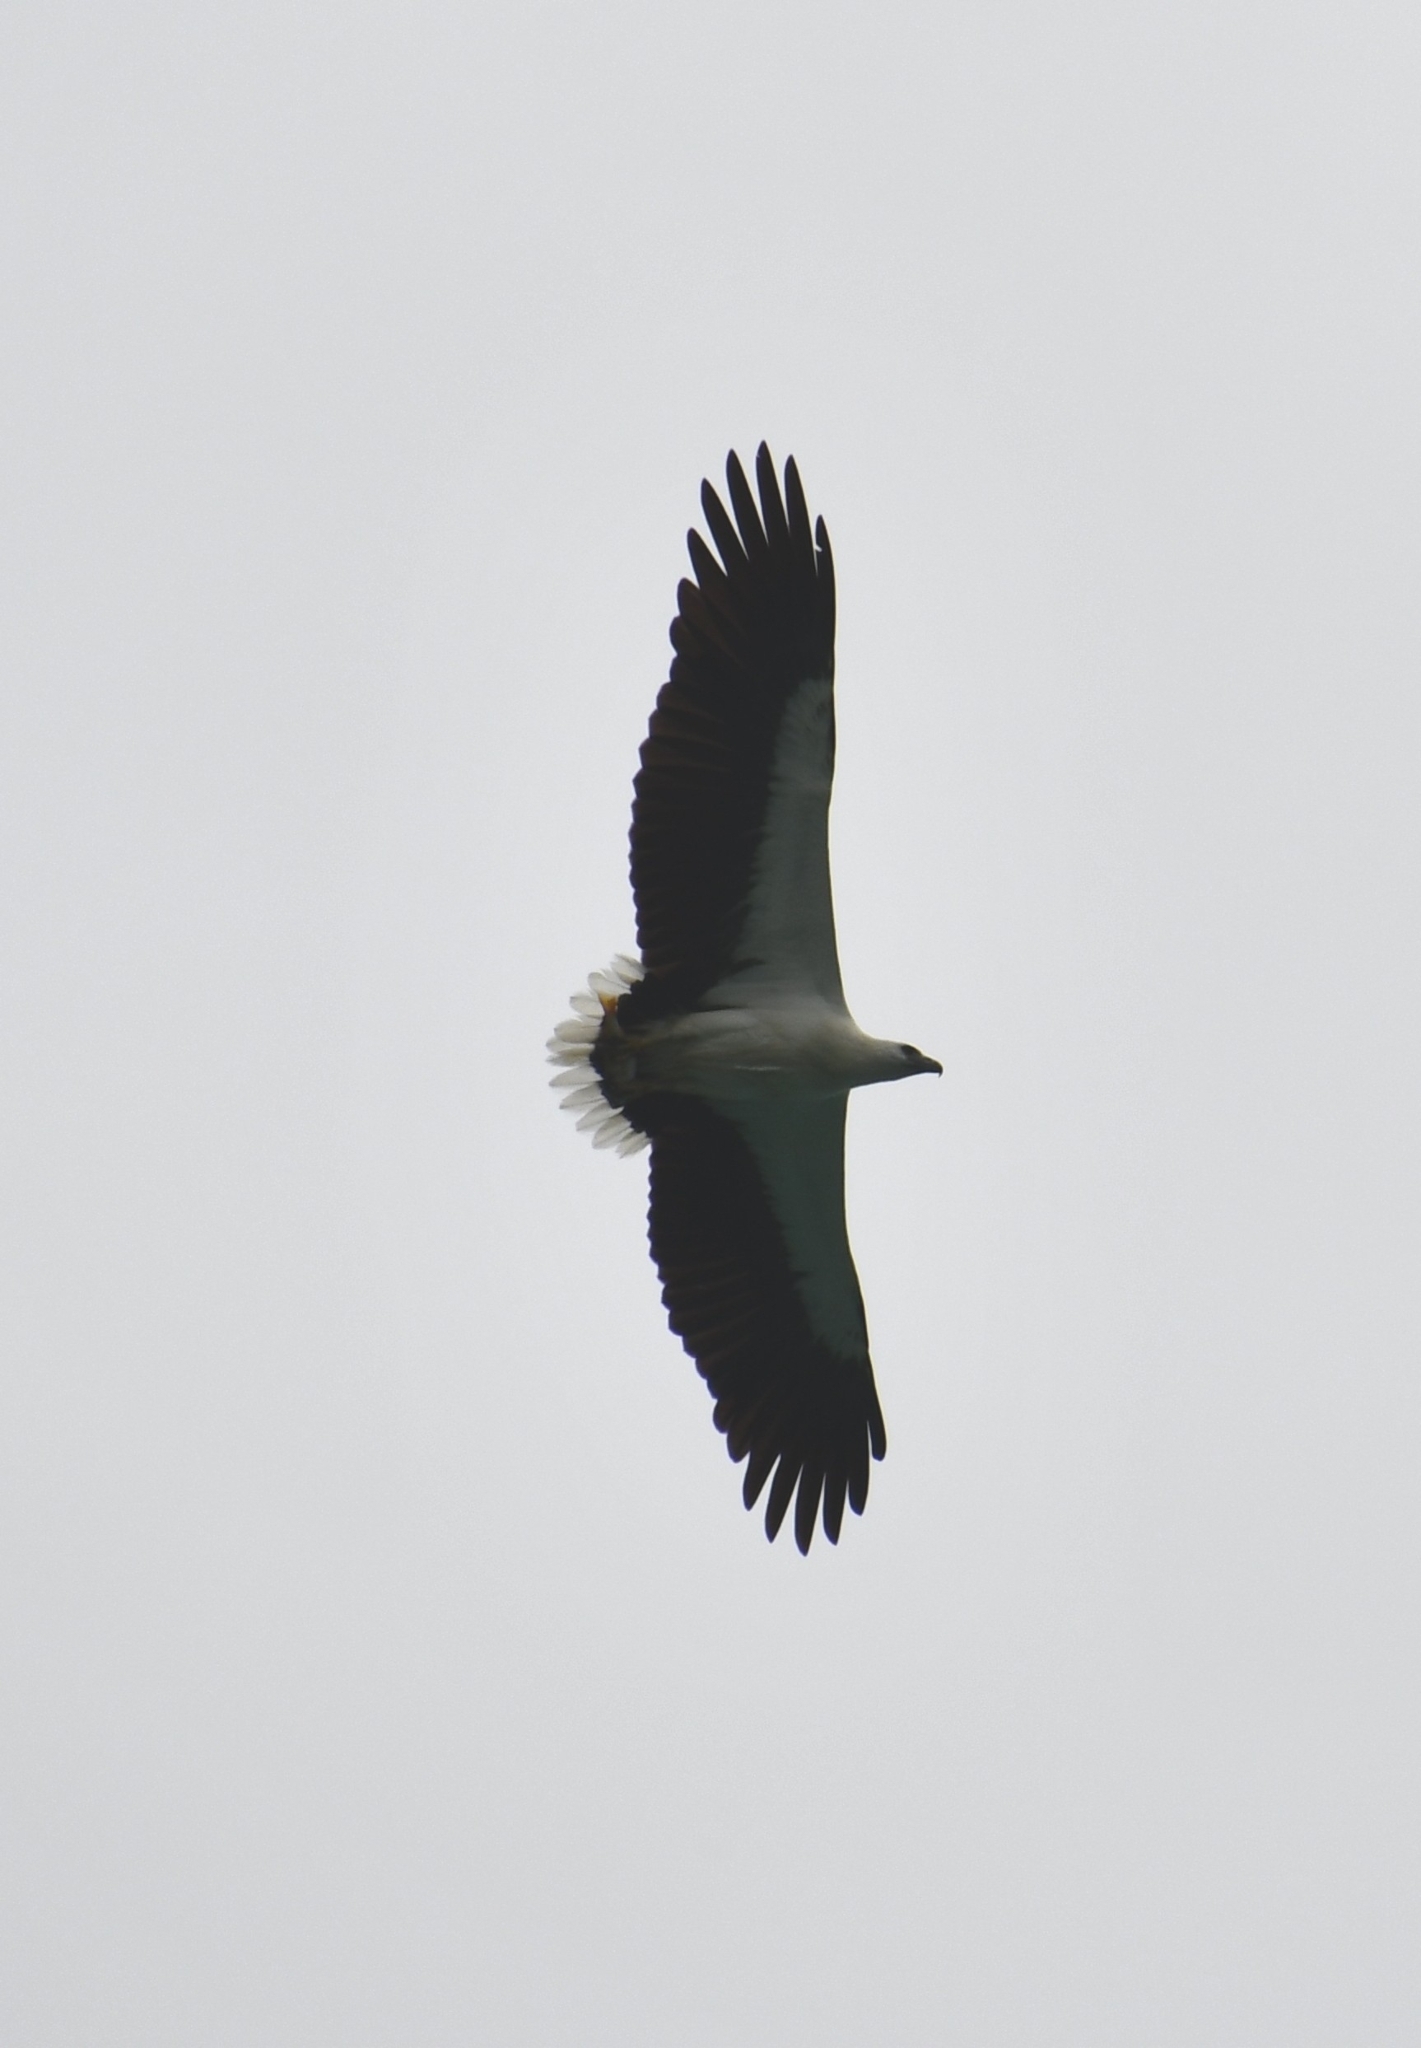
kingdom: Animalia
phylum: Chordata
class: Aves
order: Accipitriformes
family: Accipitridae
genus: Haliaeetus
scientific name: Haliaeetus leucogaster
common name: White-bellied sea eagle
